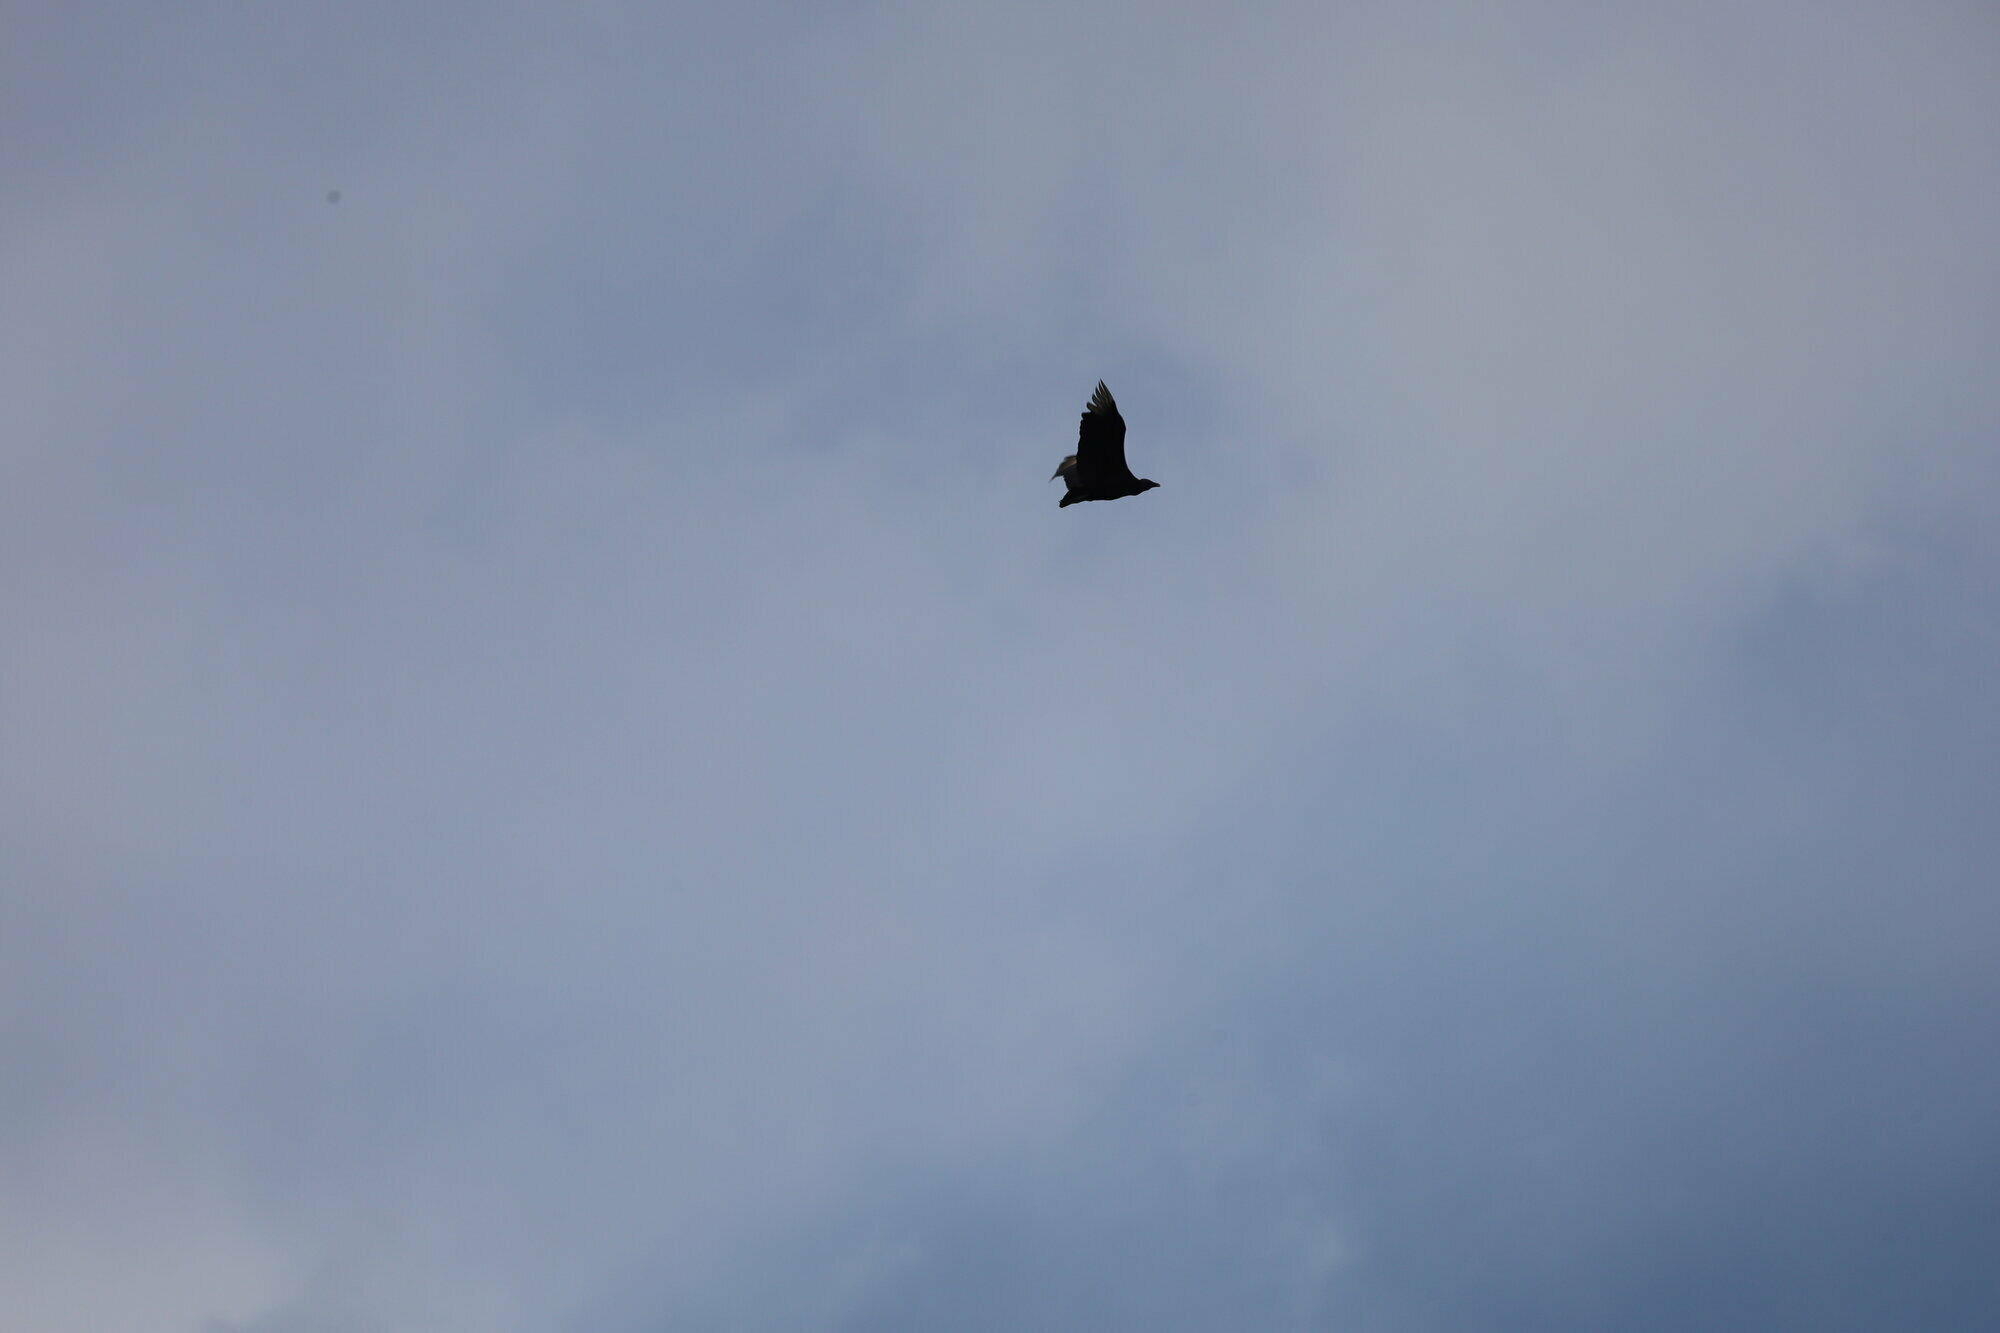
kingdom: Animalia
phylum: Chordata
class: Aves
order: Accipitriformes
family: Cathartidae
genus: Coragyps
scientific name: Coragyps atratus
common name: Black vulture
